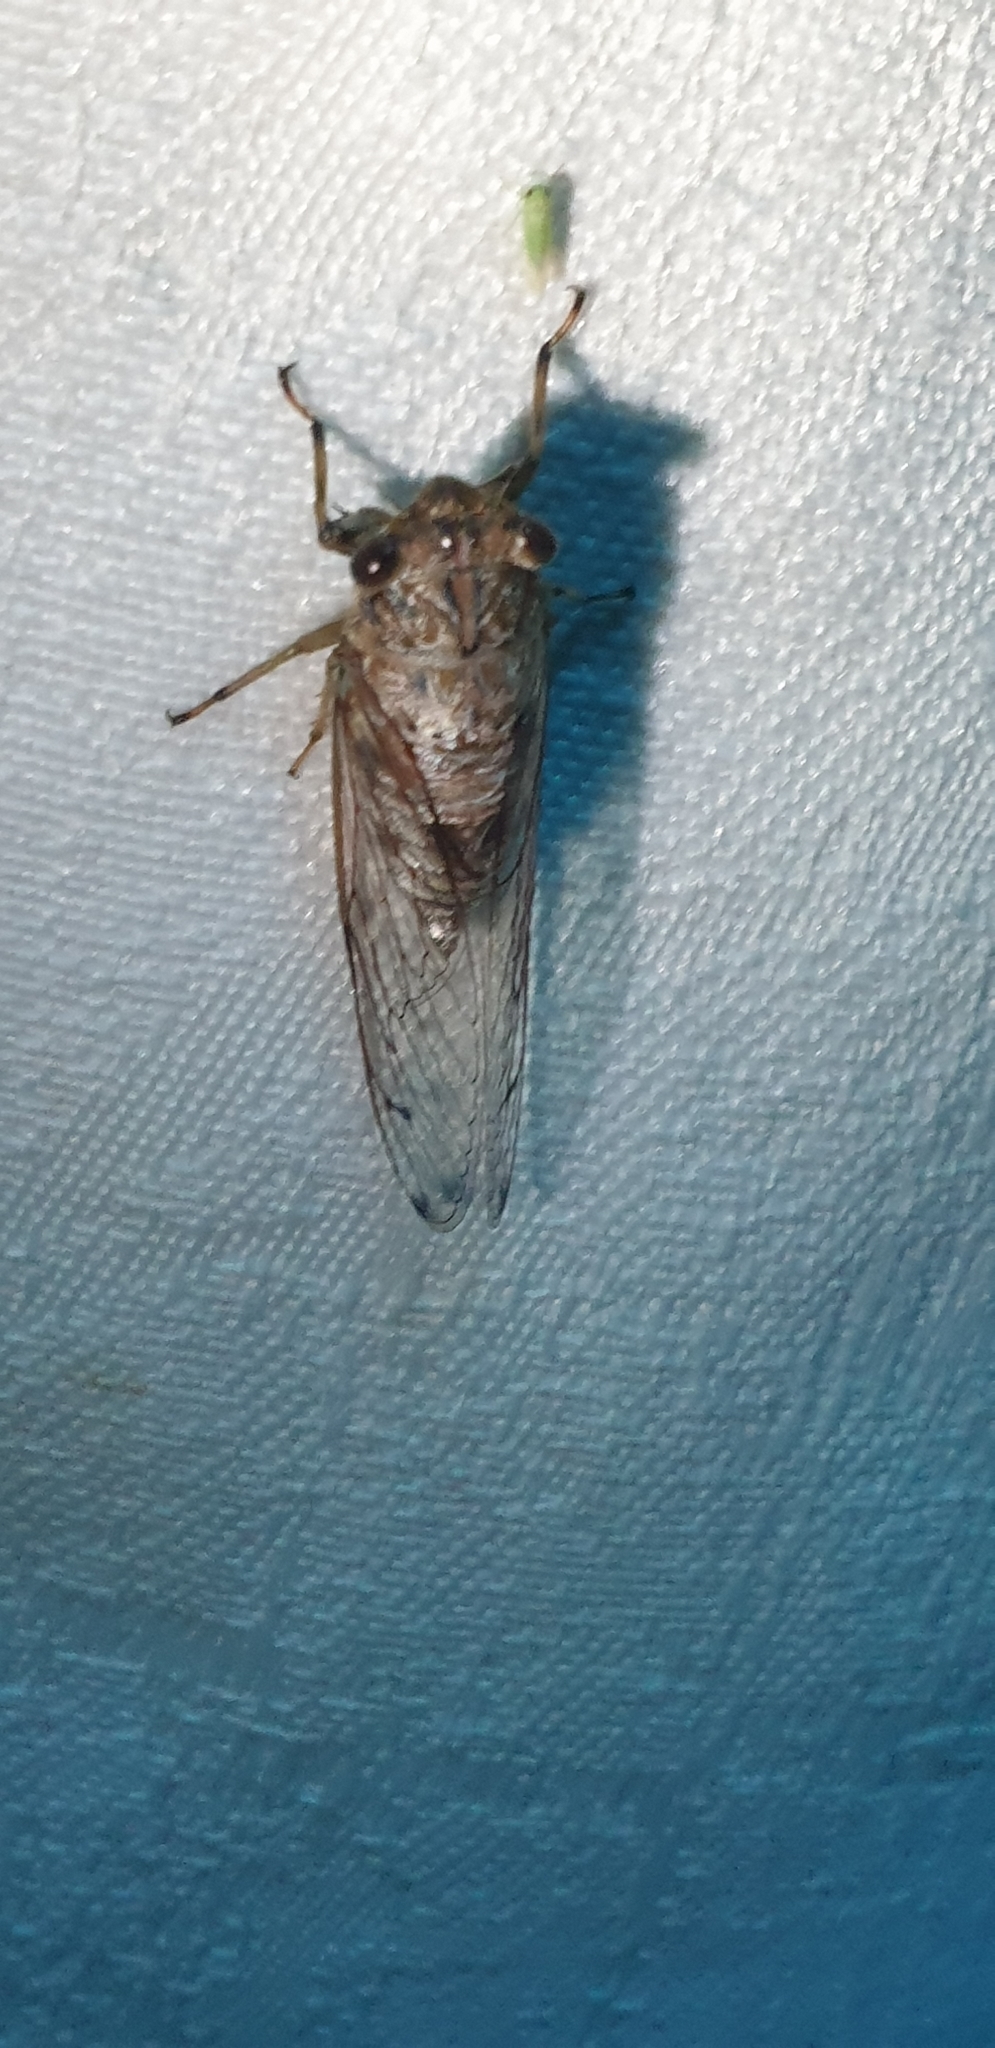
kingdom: Animalia
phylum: Arthropoda
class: Insecta
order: Hemiptera
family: Cicadidae
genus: Tamasa
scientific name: Tamasa tristigma
